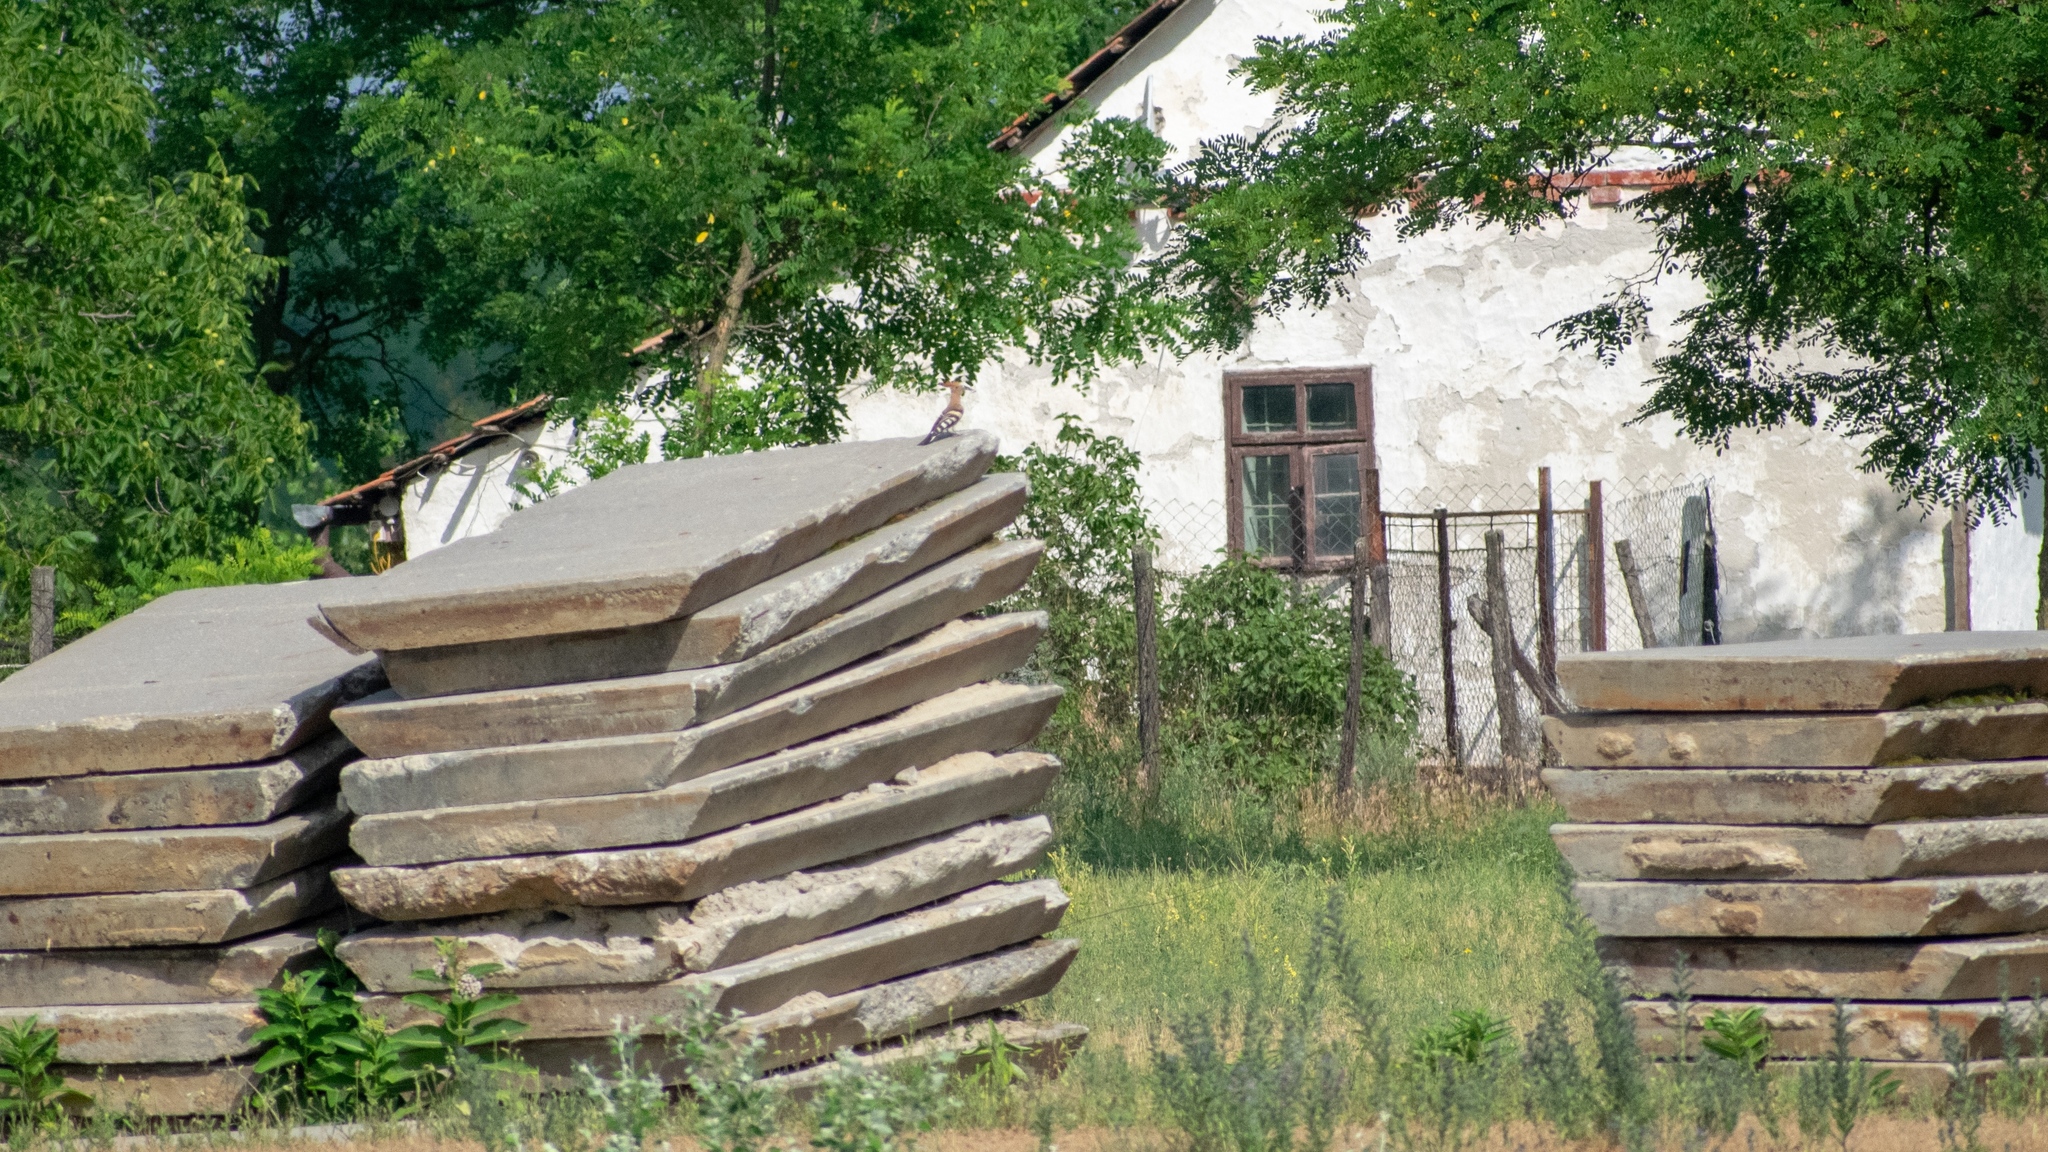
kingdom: Animalia
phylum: Chordata
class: Aves
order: Bucerotiformes
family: Upupidae
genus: Upupa
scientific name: Upupa epops
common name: Eurasian hoopoe
